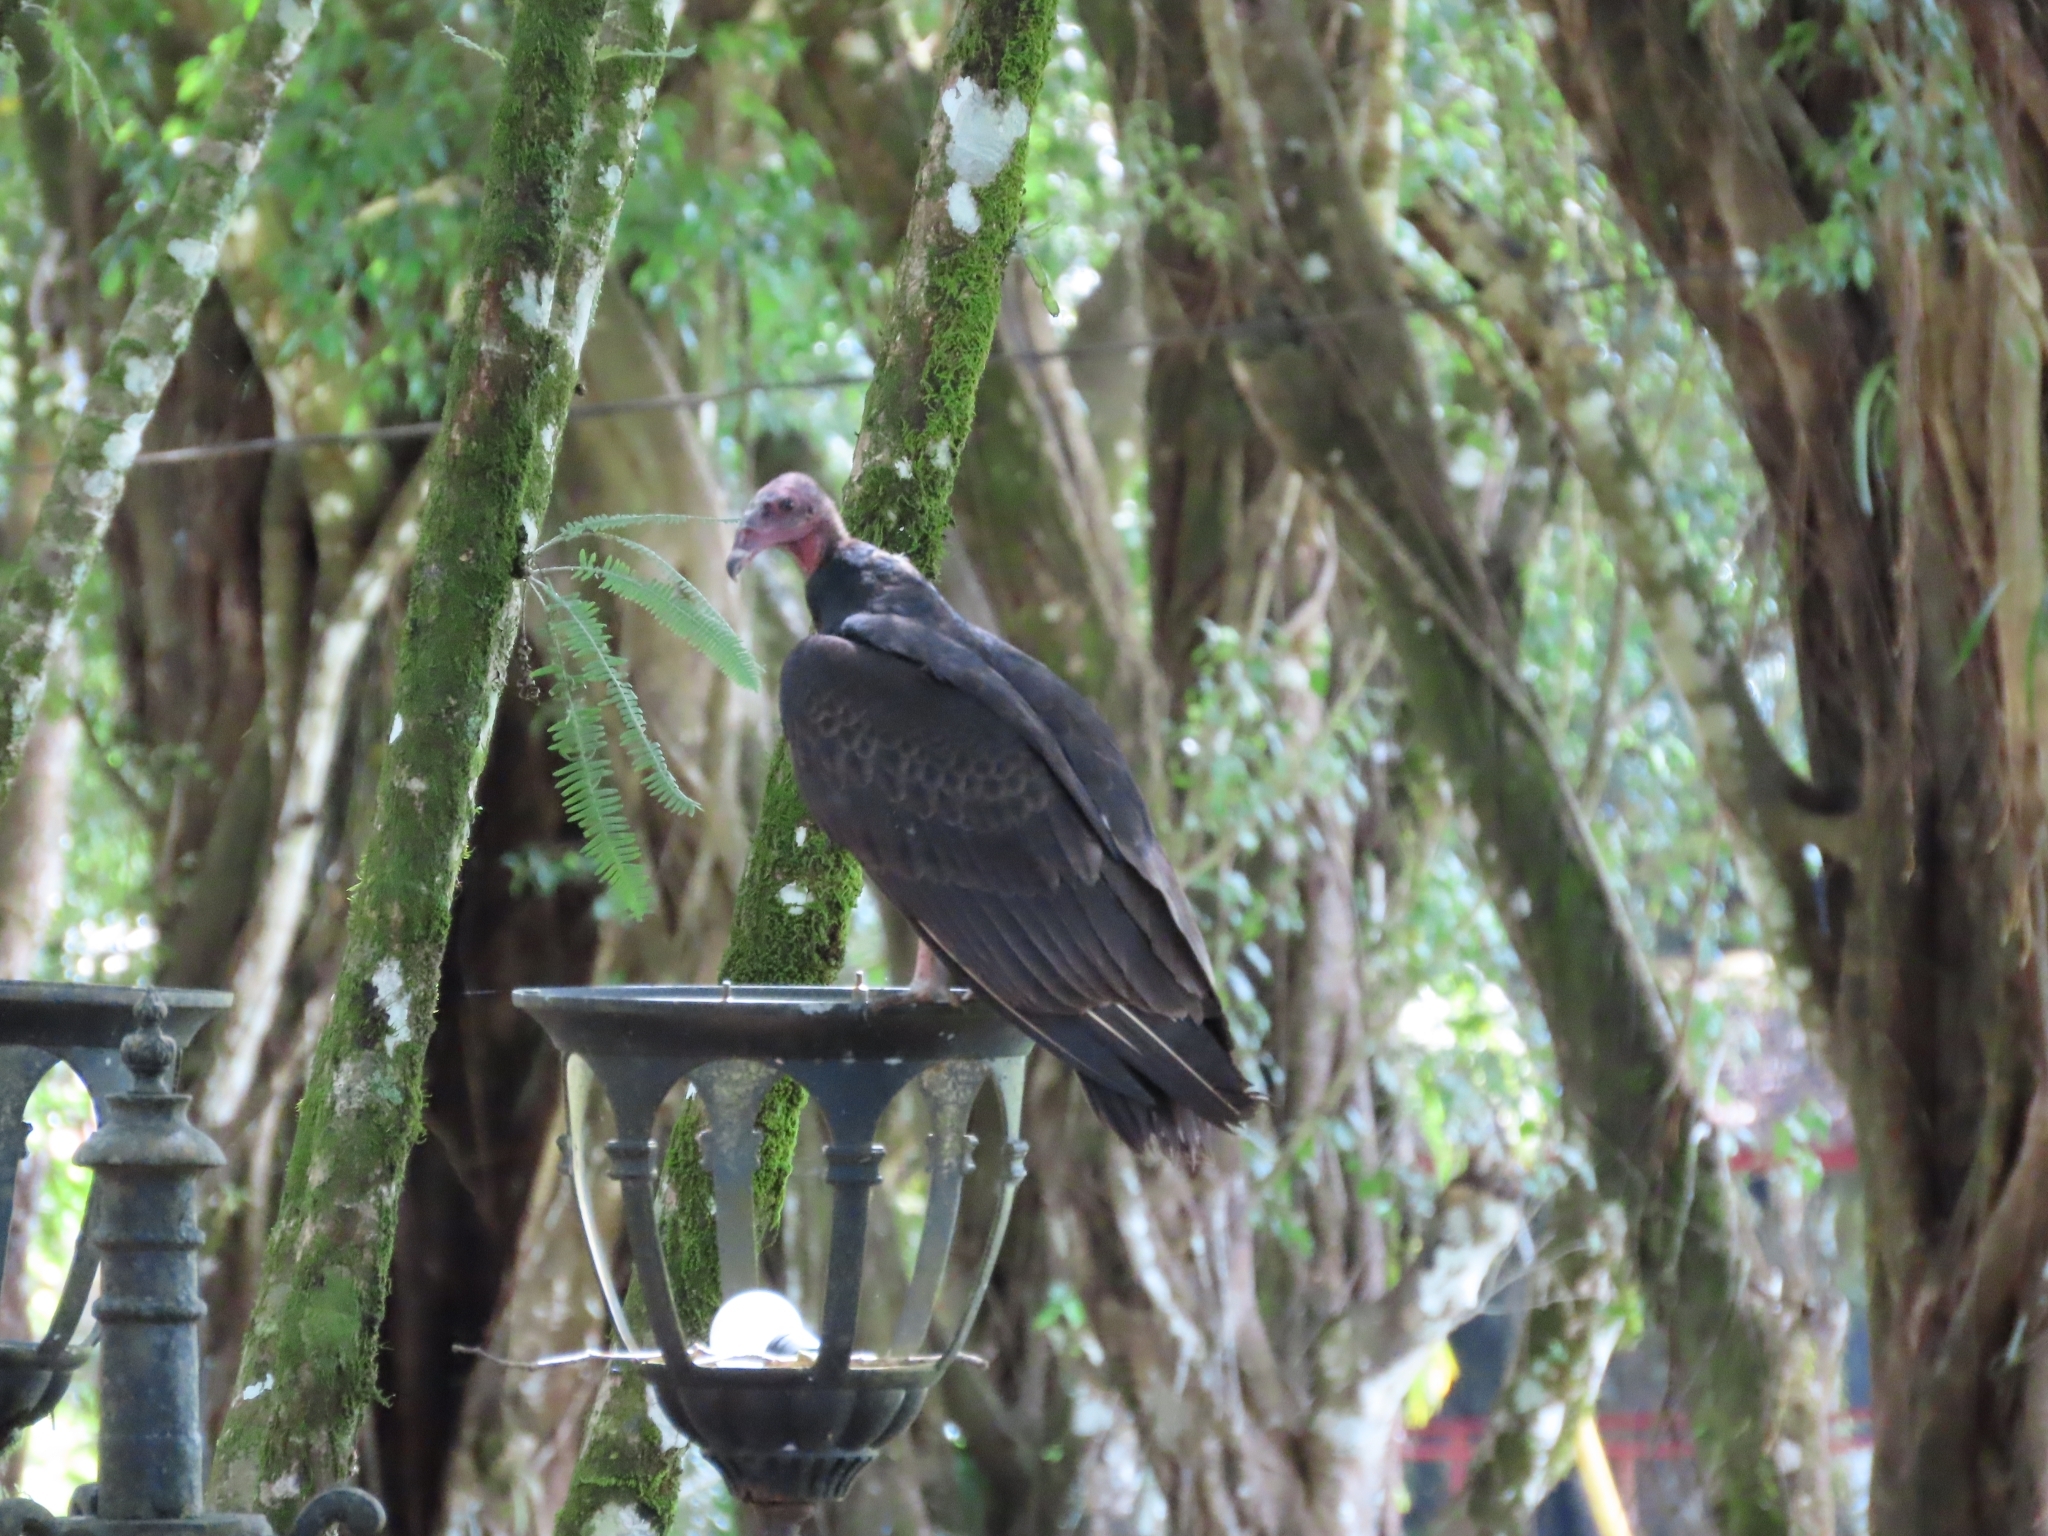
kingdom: Animalia
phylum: Chordata
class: Aves
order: Accipitriformes
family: Cathartidae
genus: Cathartes
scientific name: Cathartes aura
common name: Turkey vulture
